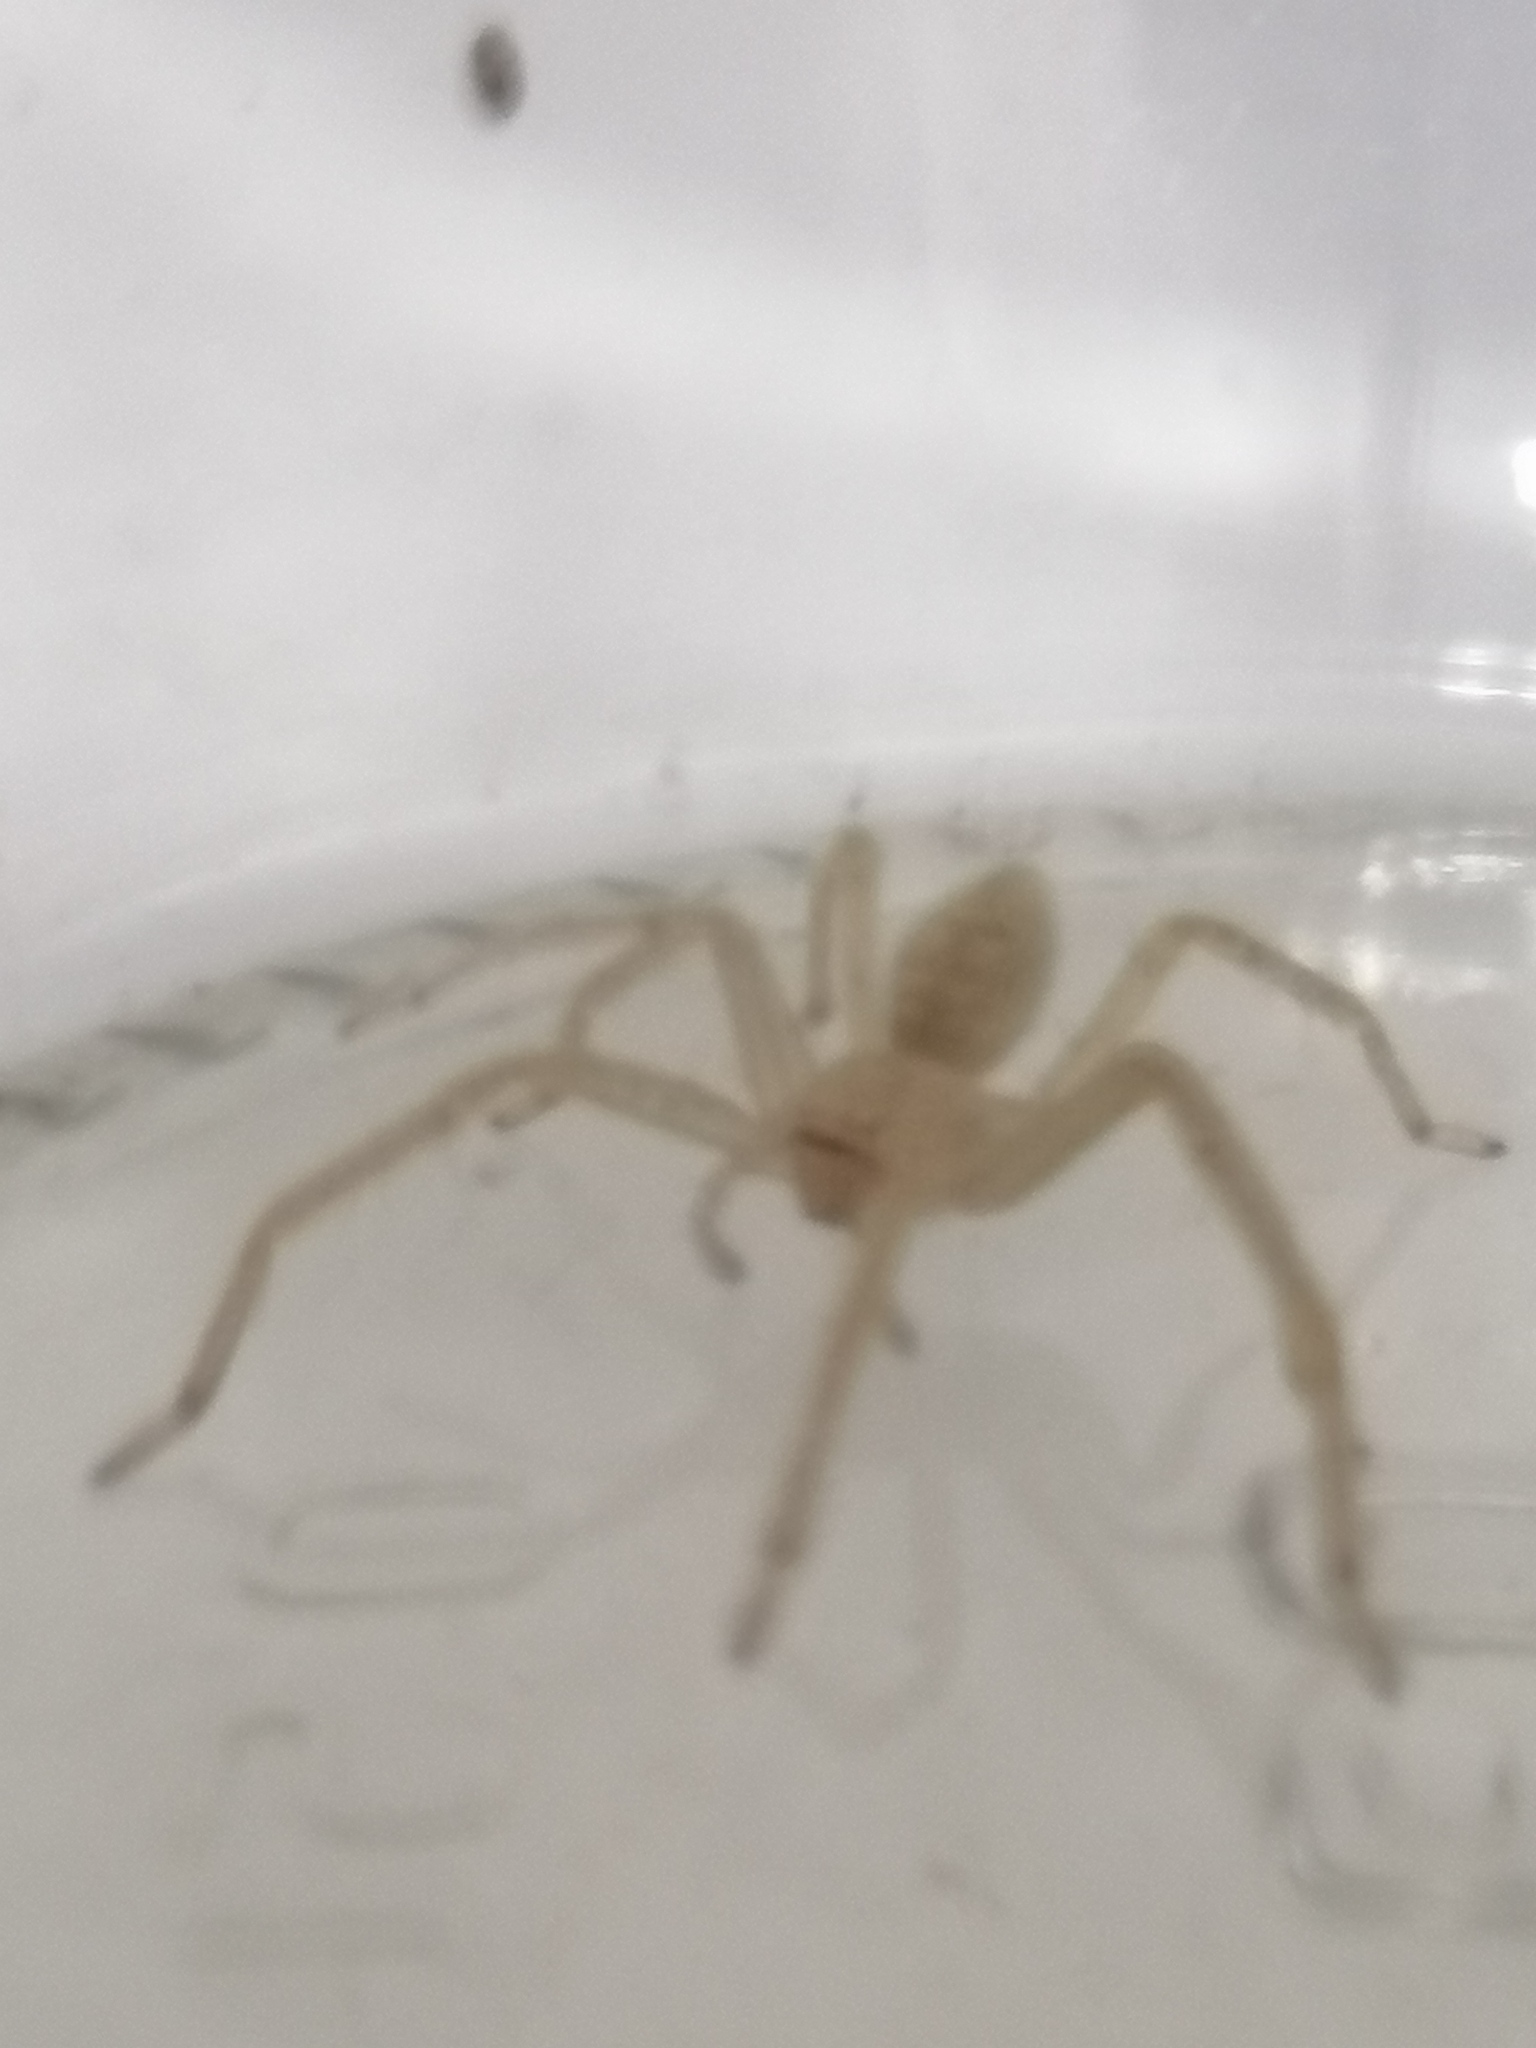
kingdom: Animalia
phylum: Arthropoda
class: Arachnida
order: Araneae
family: Sparassidae
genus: Olios
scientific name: Olios sericeus
